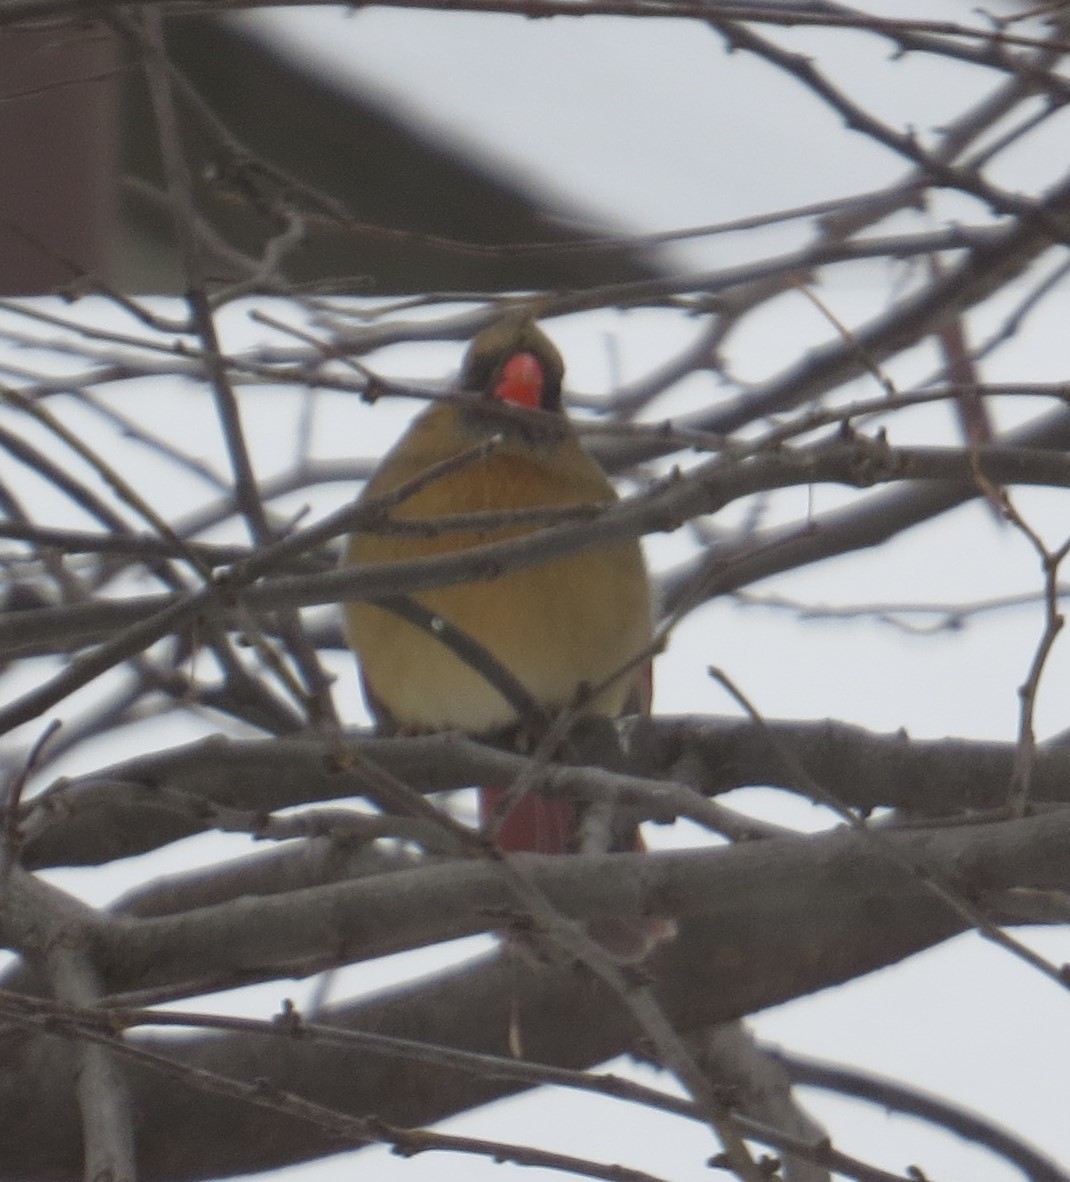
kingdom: Animalia
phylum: Chordata
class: Aves
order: Passeriformes
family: Cardinalidae
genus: Cardinalis
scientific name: Cardinalis cardinalis
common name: Northern cardinal
